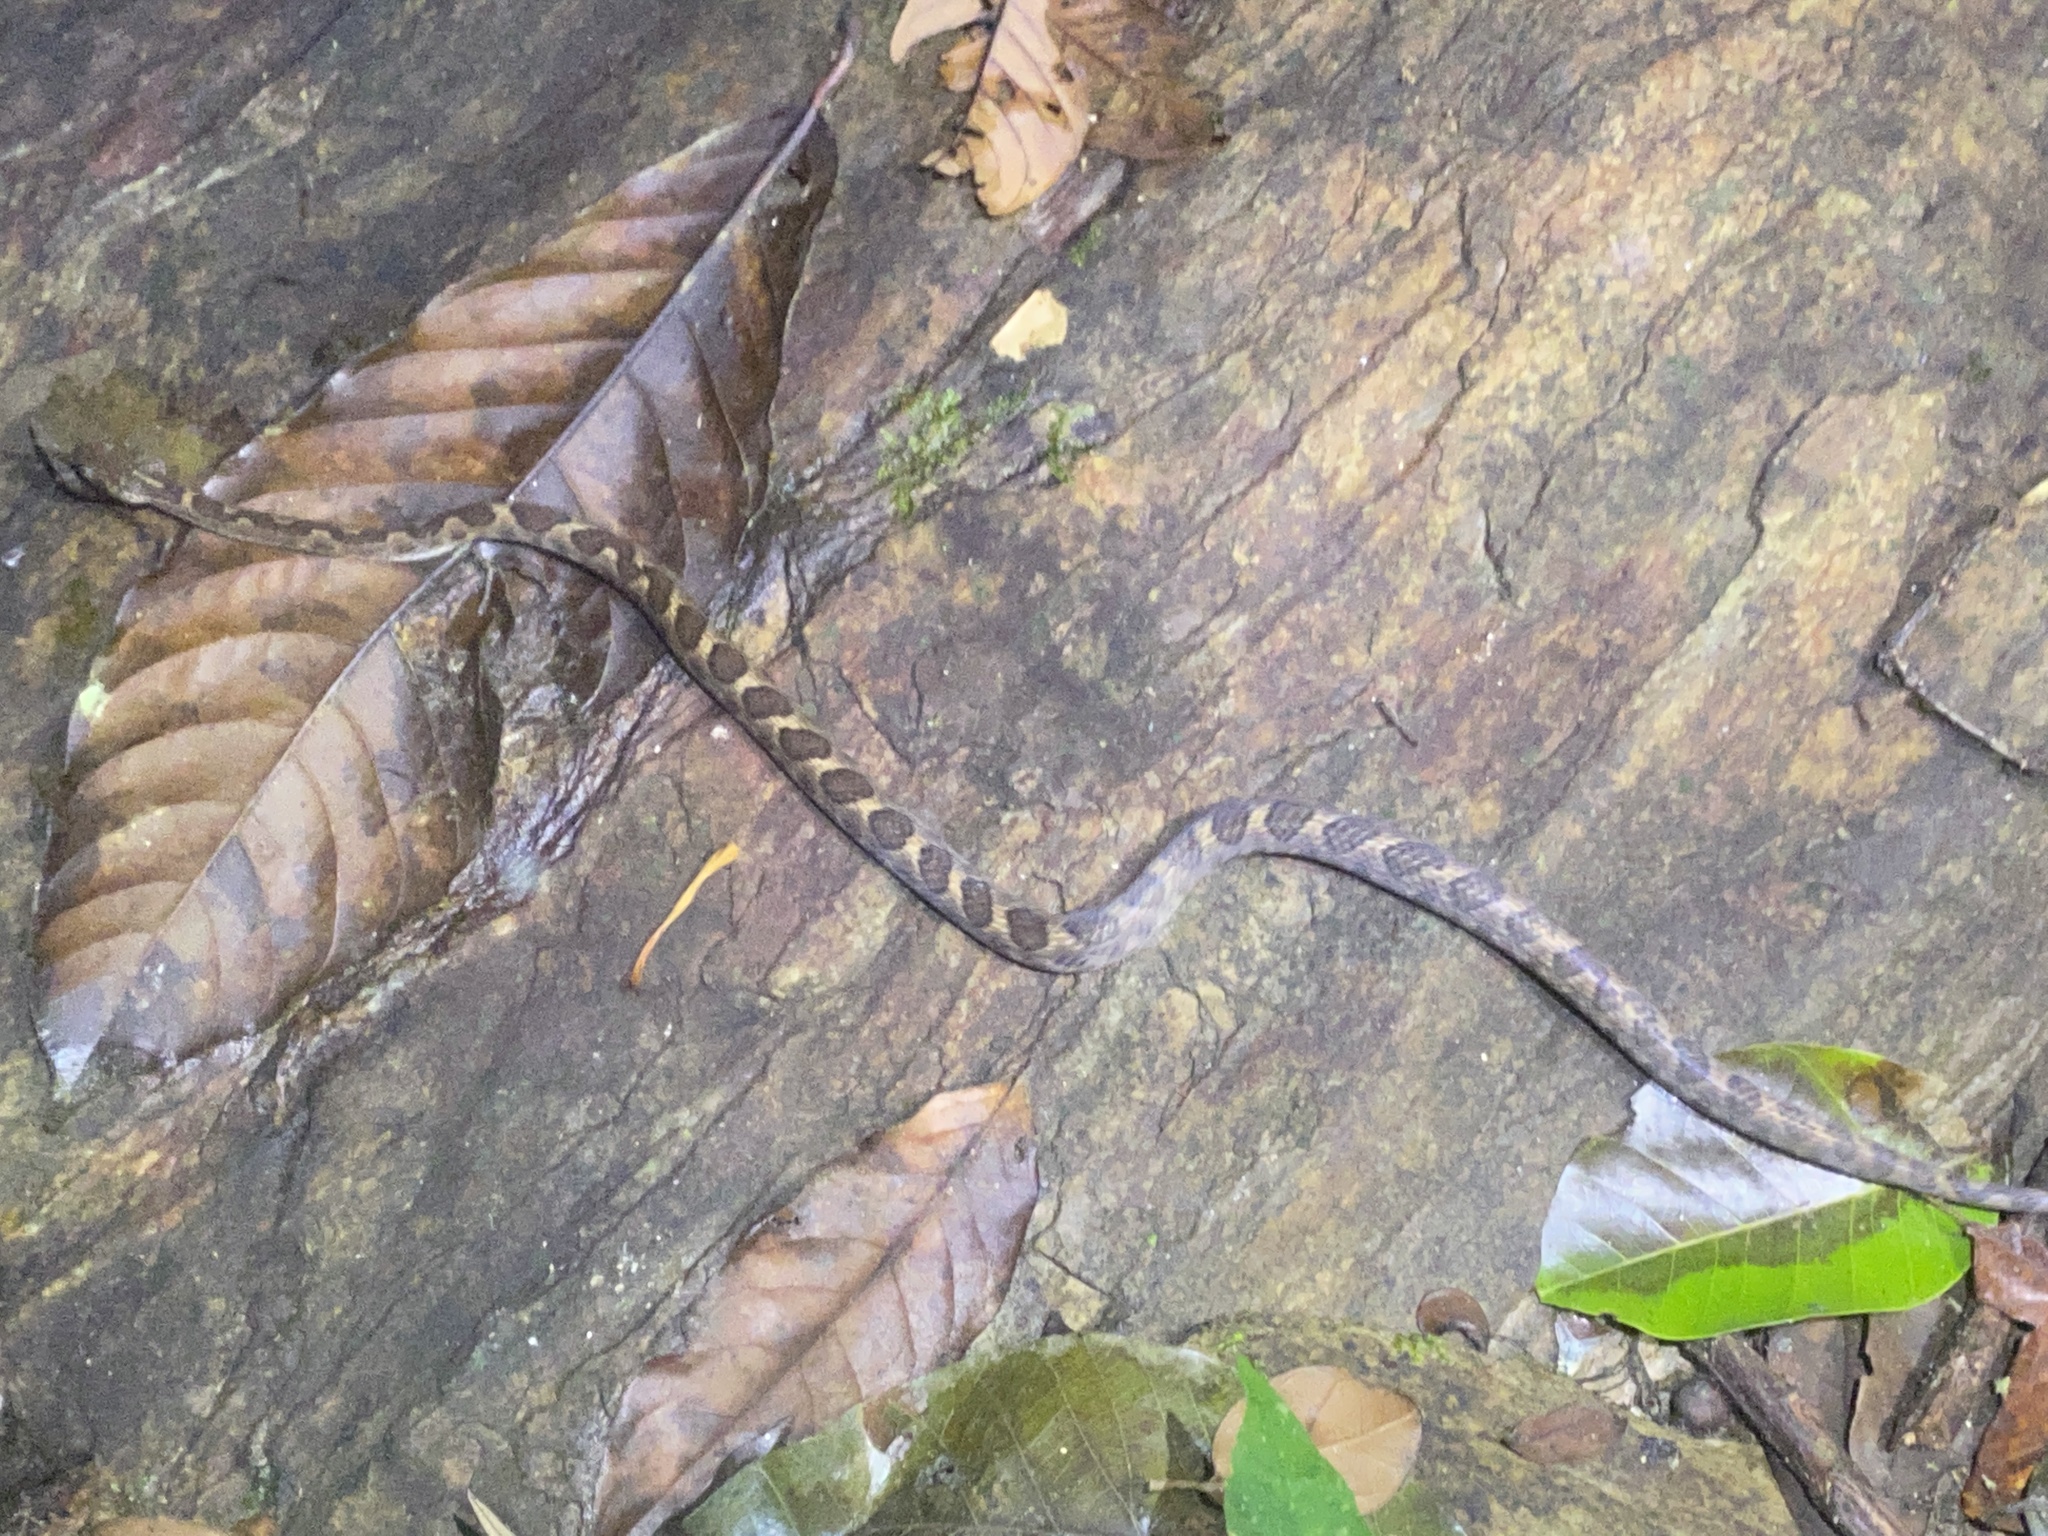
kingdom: Animalia
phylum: Chordata
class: Squamata
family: Colubridae
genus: Leptodeira
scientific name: Leptodeira ashmeadii
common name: Banded cat-eyed snake
